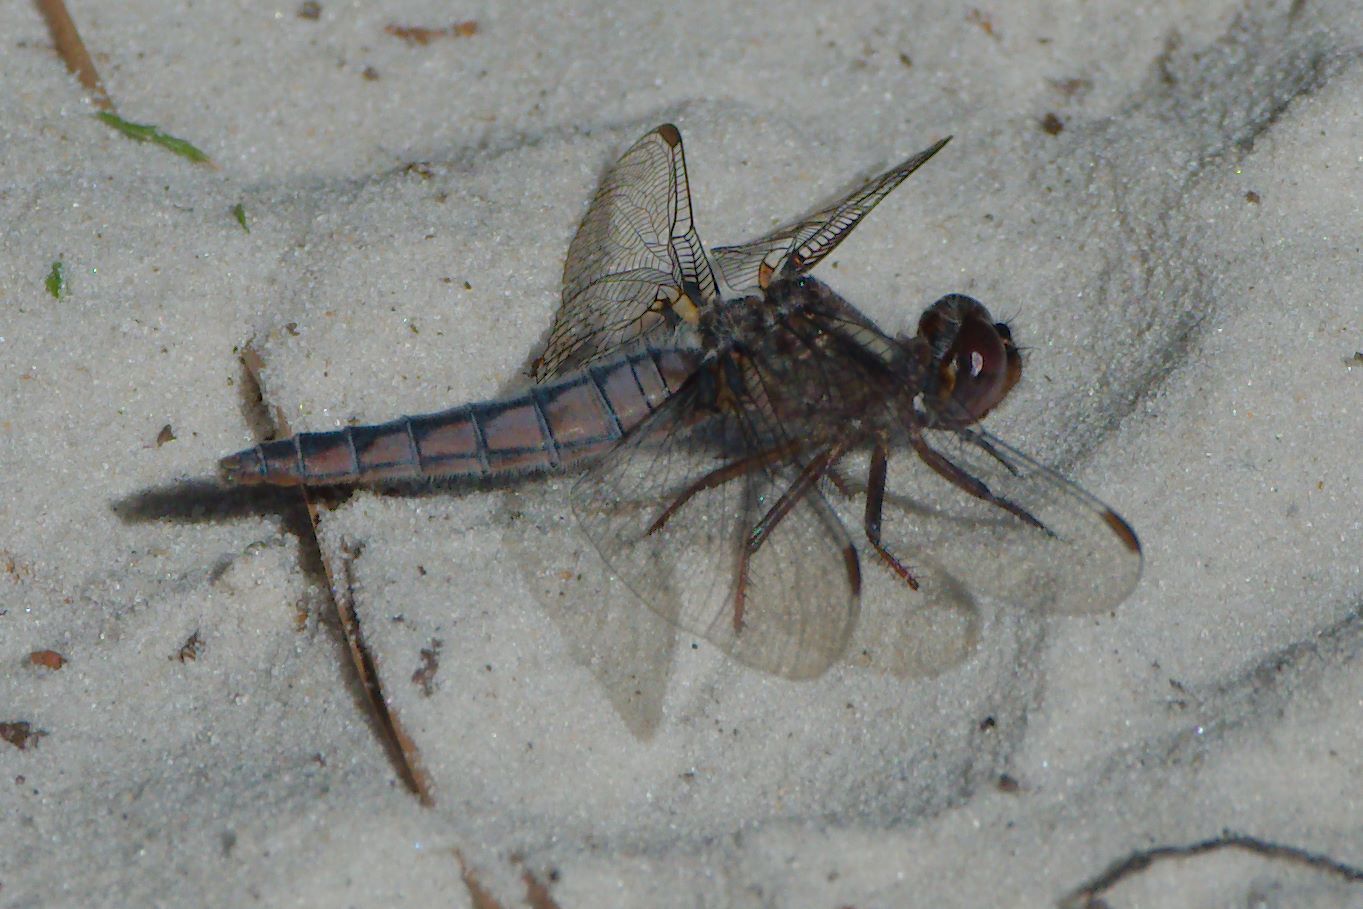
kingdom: Animalia
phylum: Arthropoda
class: Insecta
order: Odonata
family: Libellulidae
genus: Ladona
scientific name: Ladona deplanata
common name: Blue corporal
